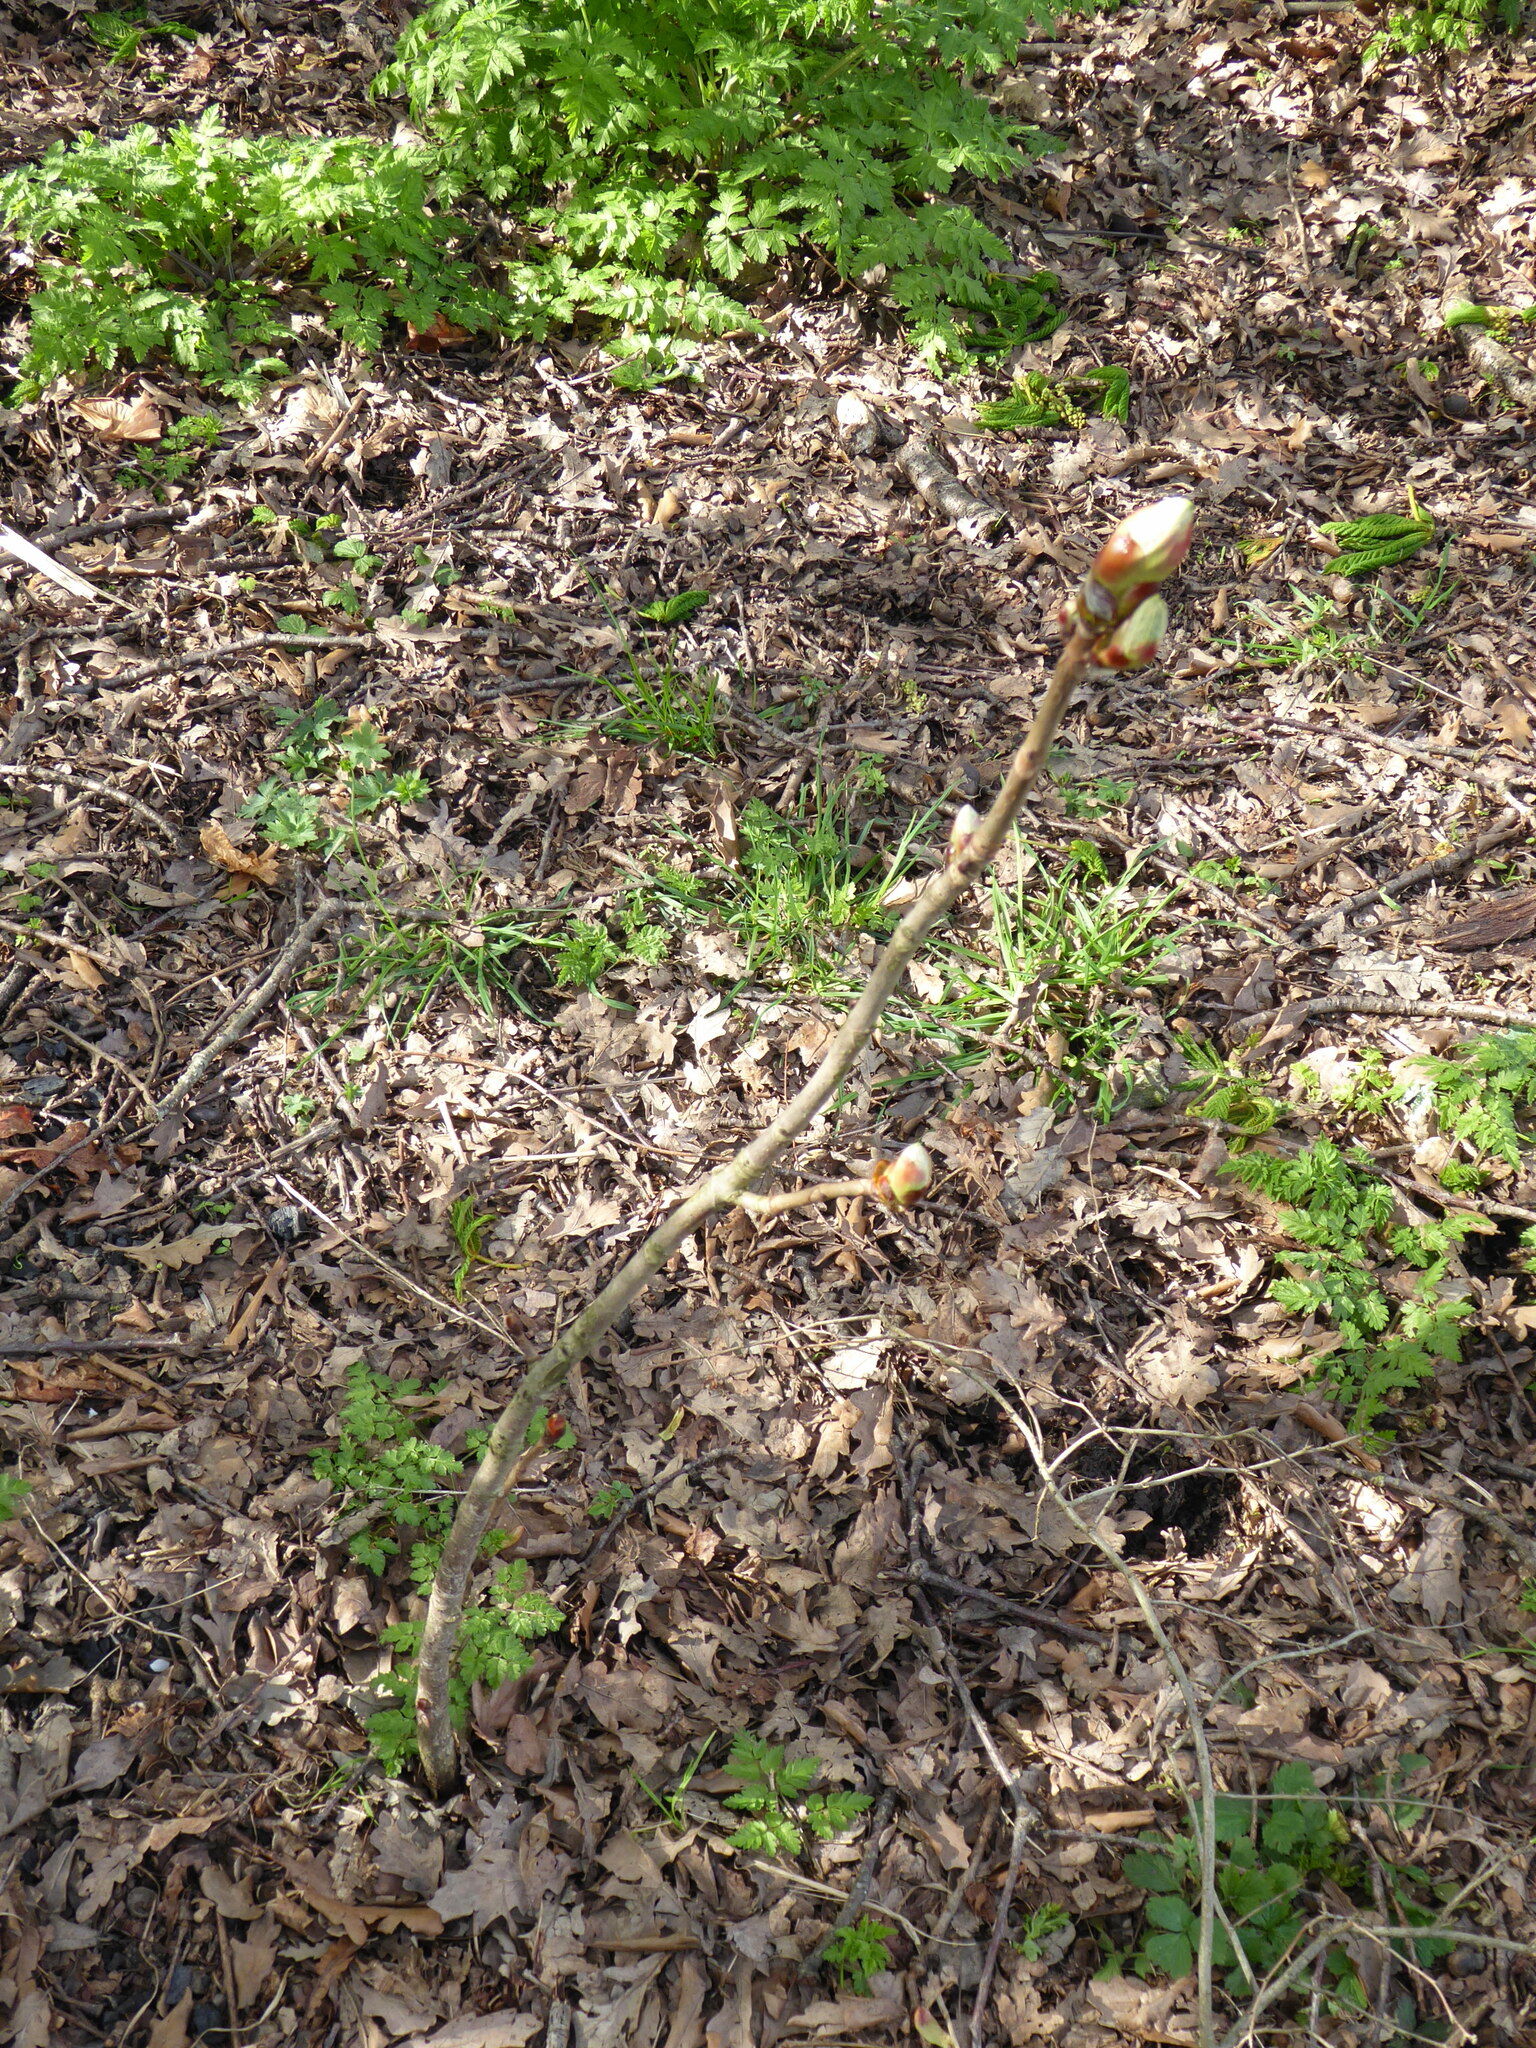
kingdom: Plantae
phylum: Tracheophyta
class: Magnoliopsida
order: Sapindales
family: Sapindaceae
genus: Aesculus
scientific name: Aesculus hippocastanum
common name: Horse-chestnut
